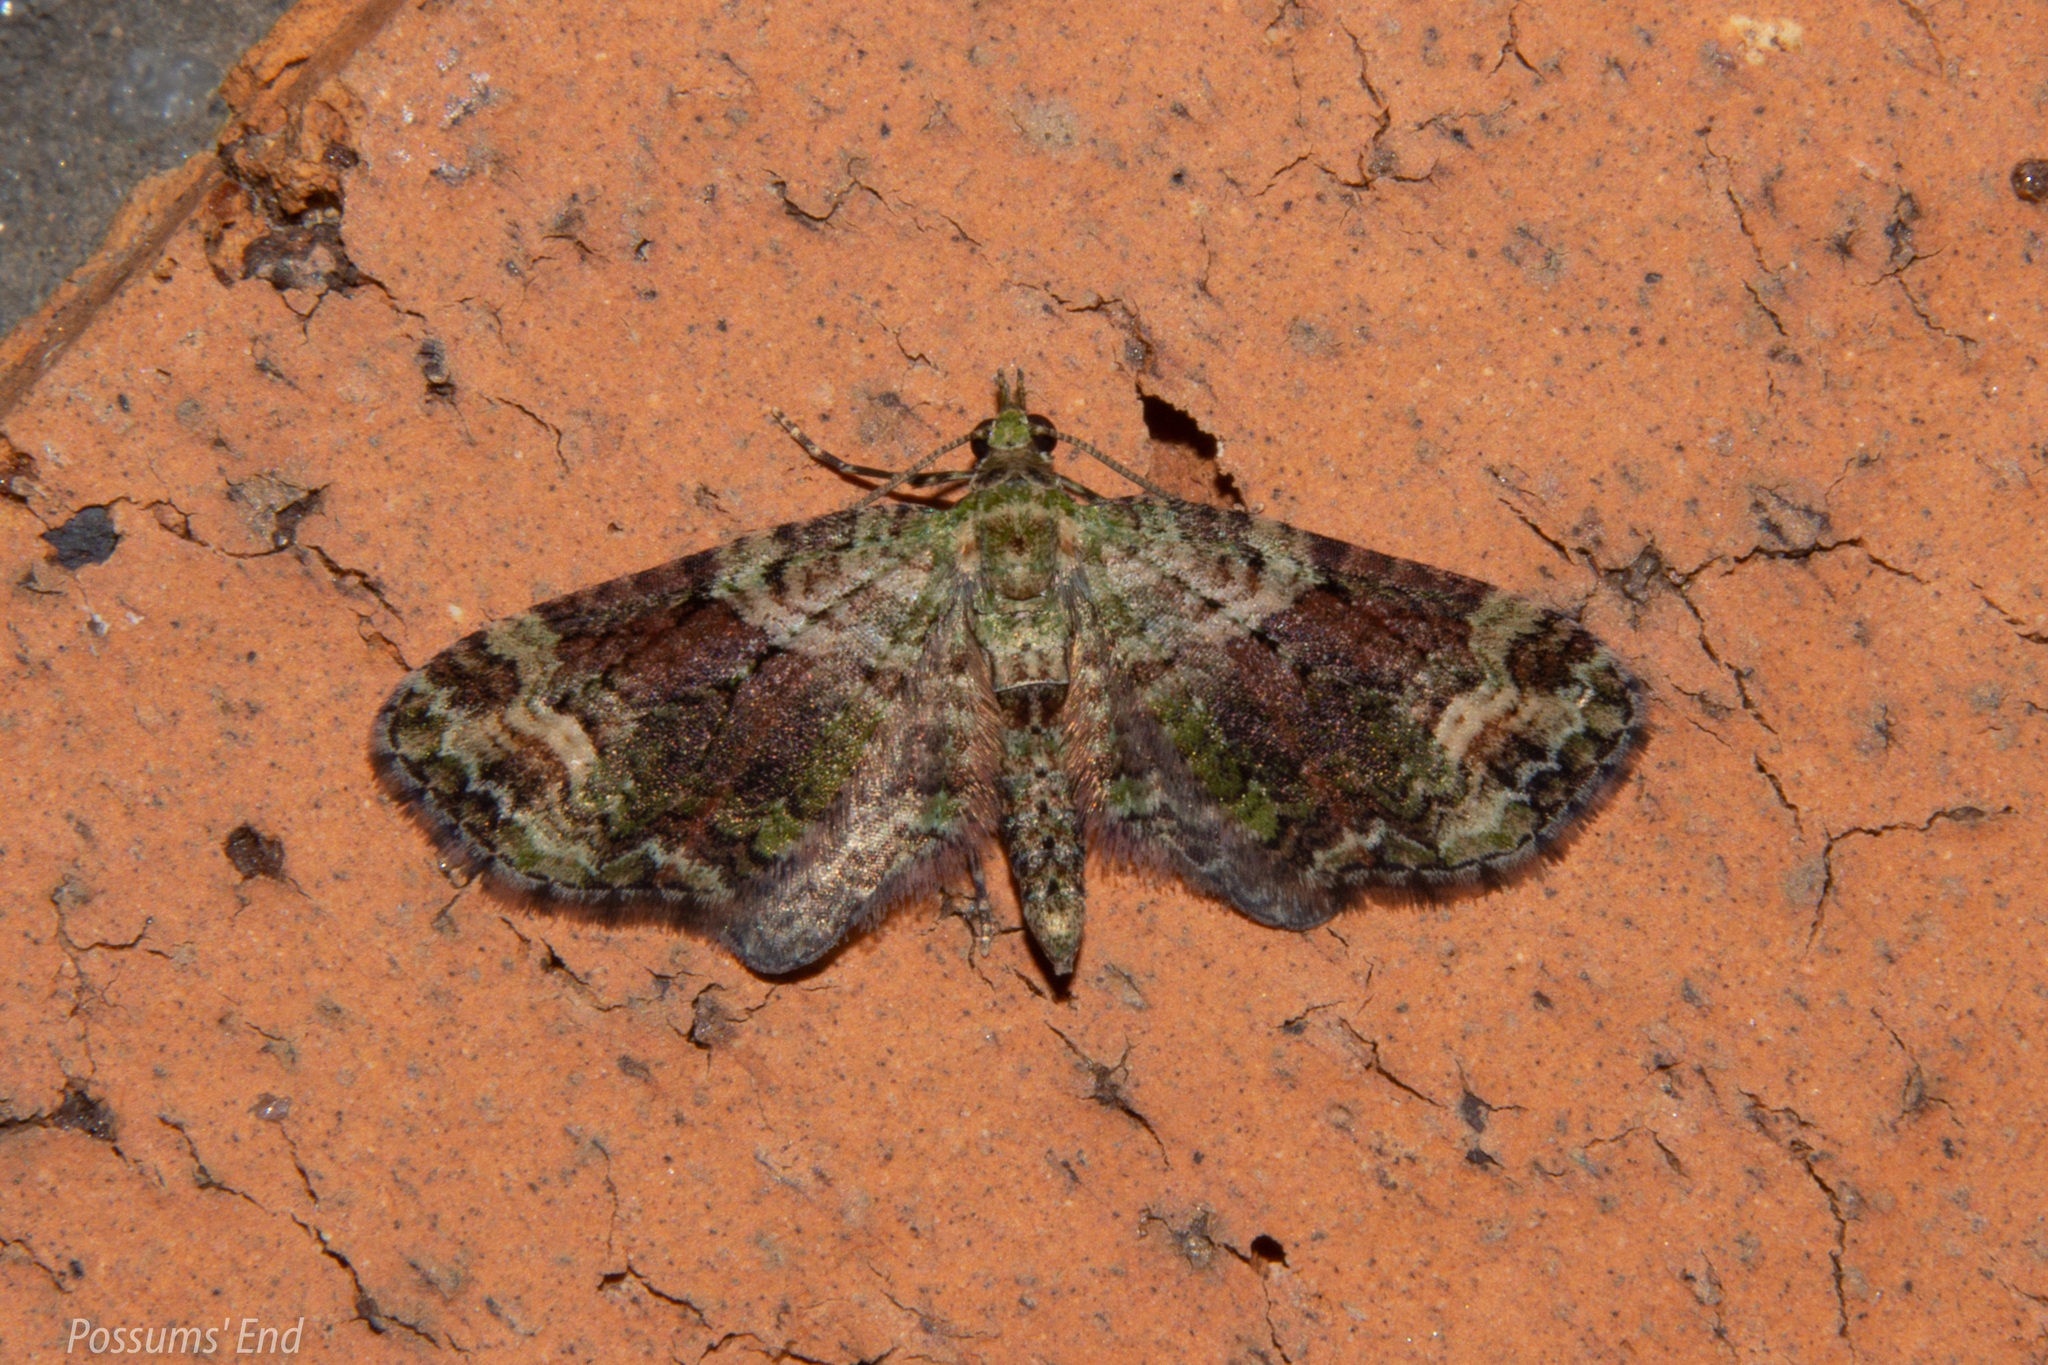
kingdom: Animalia
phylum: Arthropoda
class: Insecta
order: Lepidoptera
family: Geometridae
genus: Idaea
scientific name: Idaea mutanda
